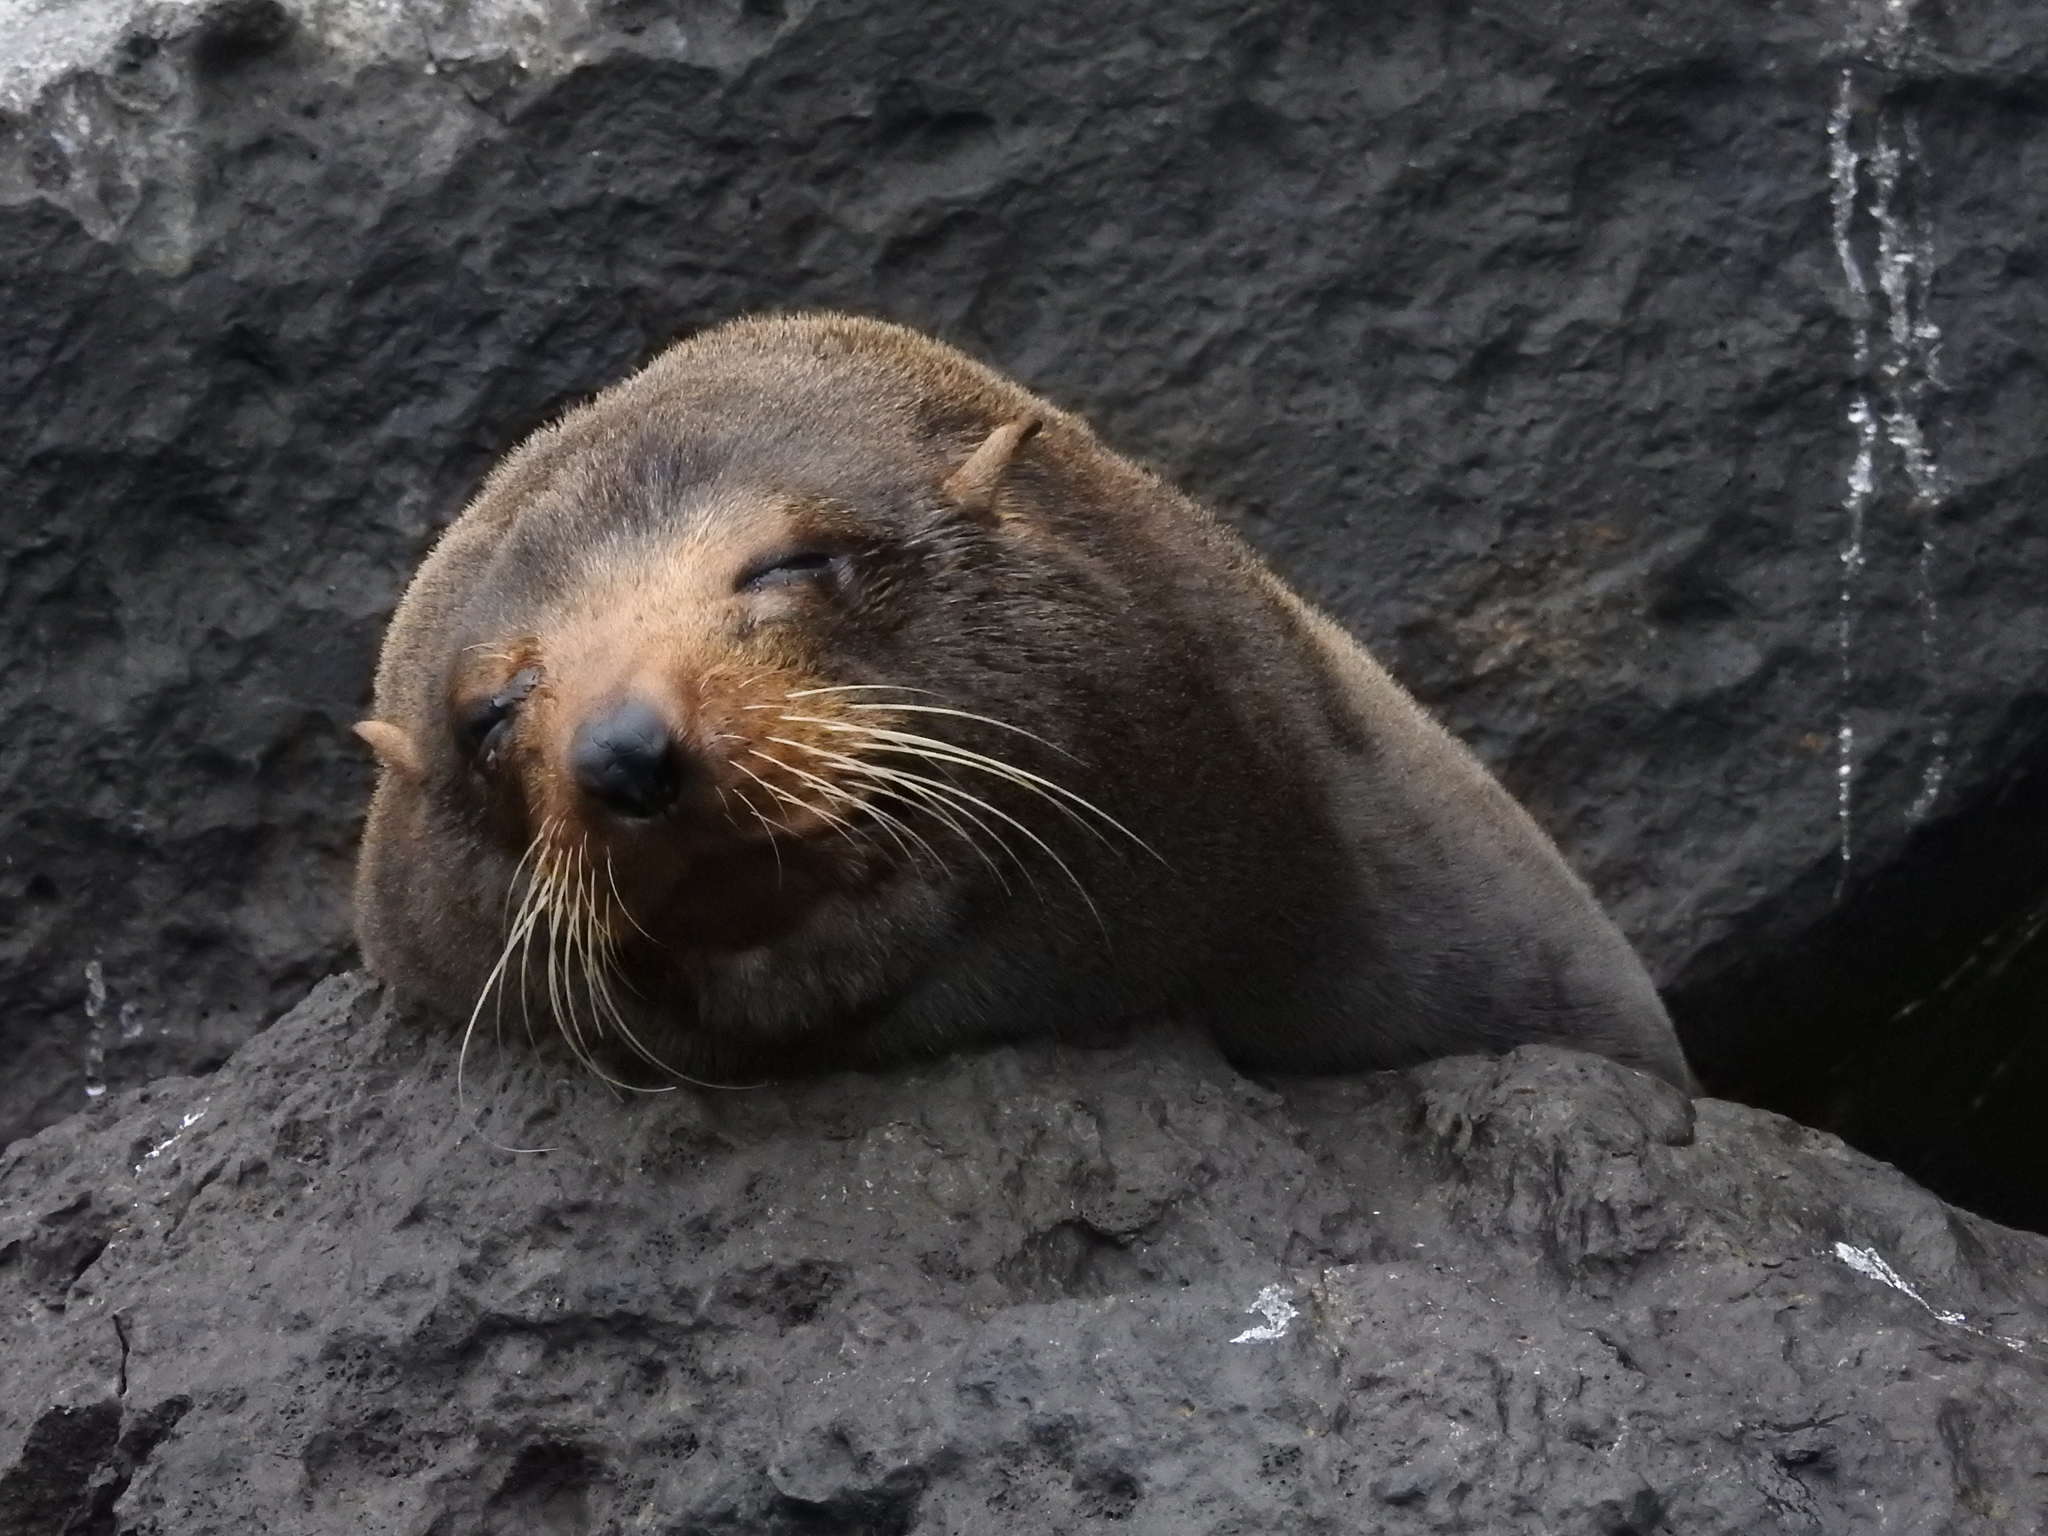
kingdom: Animalia
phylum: Chordata
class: Mammalia
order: Carnivora
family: Otariidae
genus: Arctocephalus
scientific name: Arctocephalus galapagoensis
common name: Galapagos fur seal
